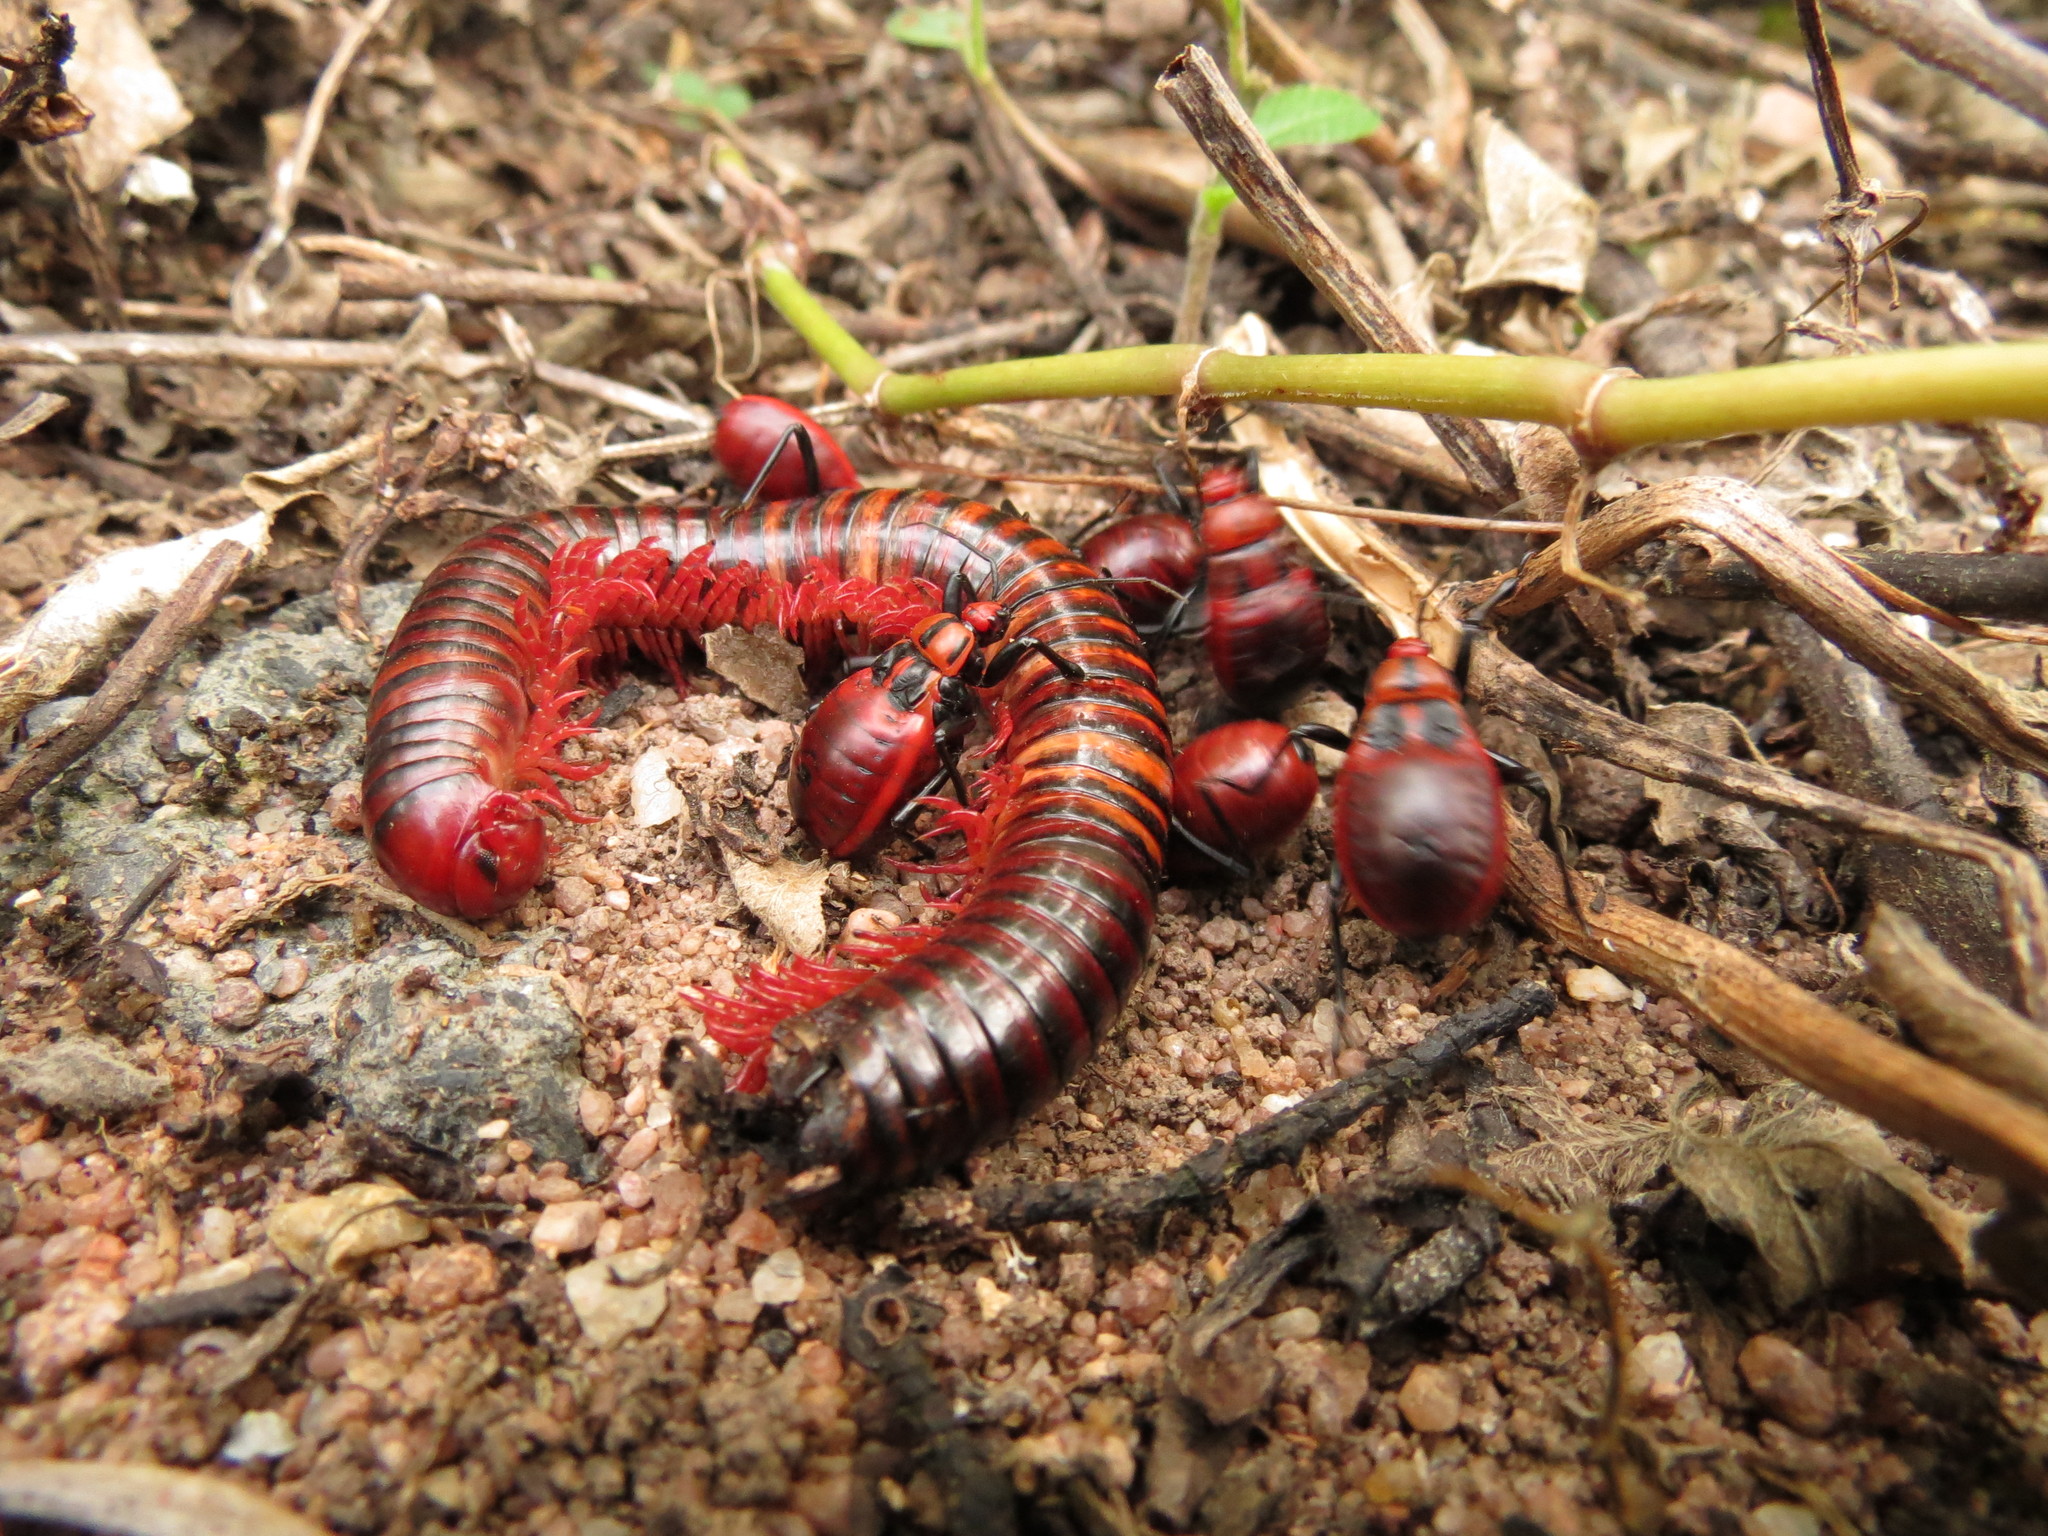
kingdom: Animalia
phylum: Arthropoda
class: Insecta
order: Hemiptera
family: Reduviidae
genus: Ectrichodia
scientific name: Ectrichodia crux
